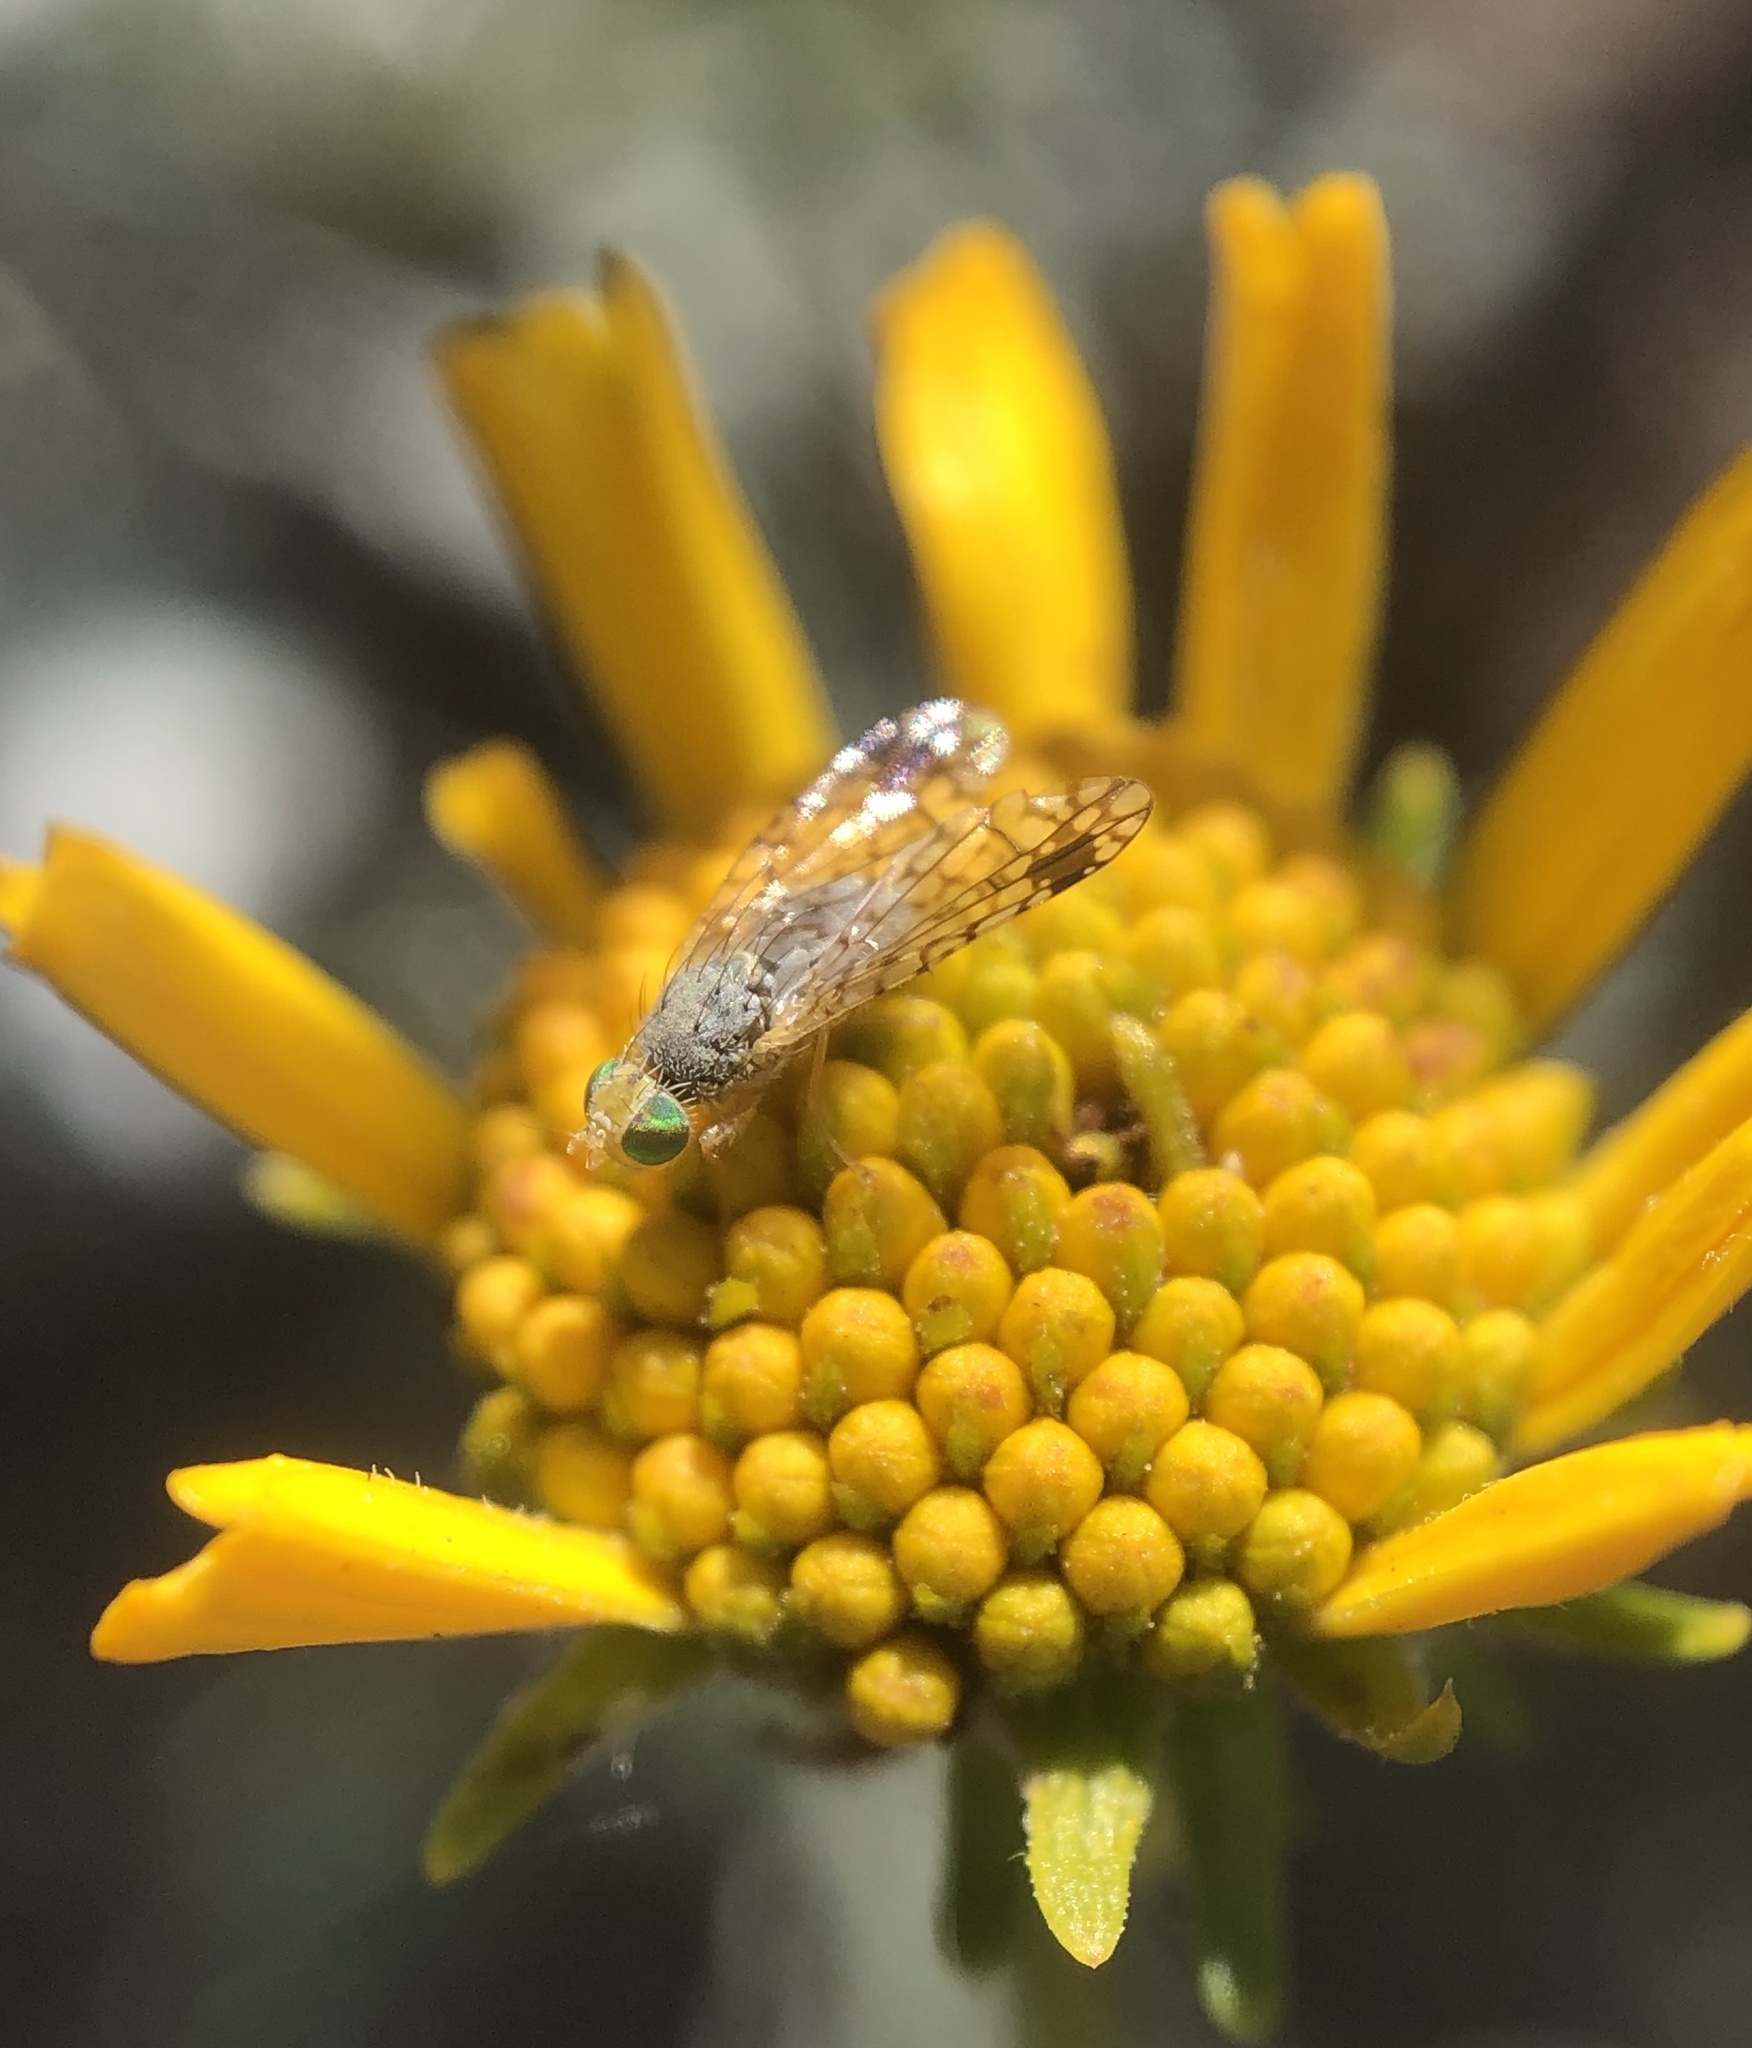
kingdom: Animalia
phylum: Arthropoda
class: Insecta
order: Diptera
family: Tephritidae
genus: Euarestoides
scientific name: Euarestoides acutangulus
